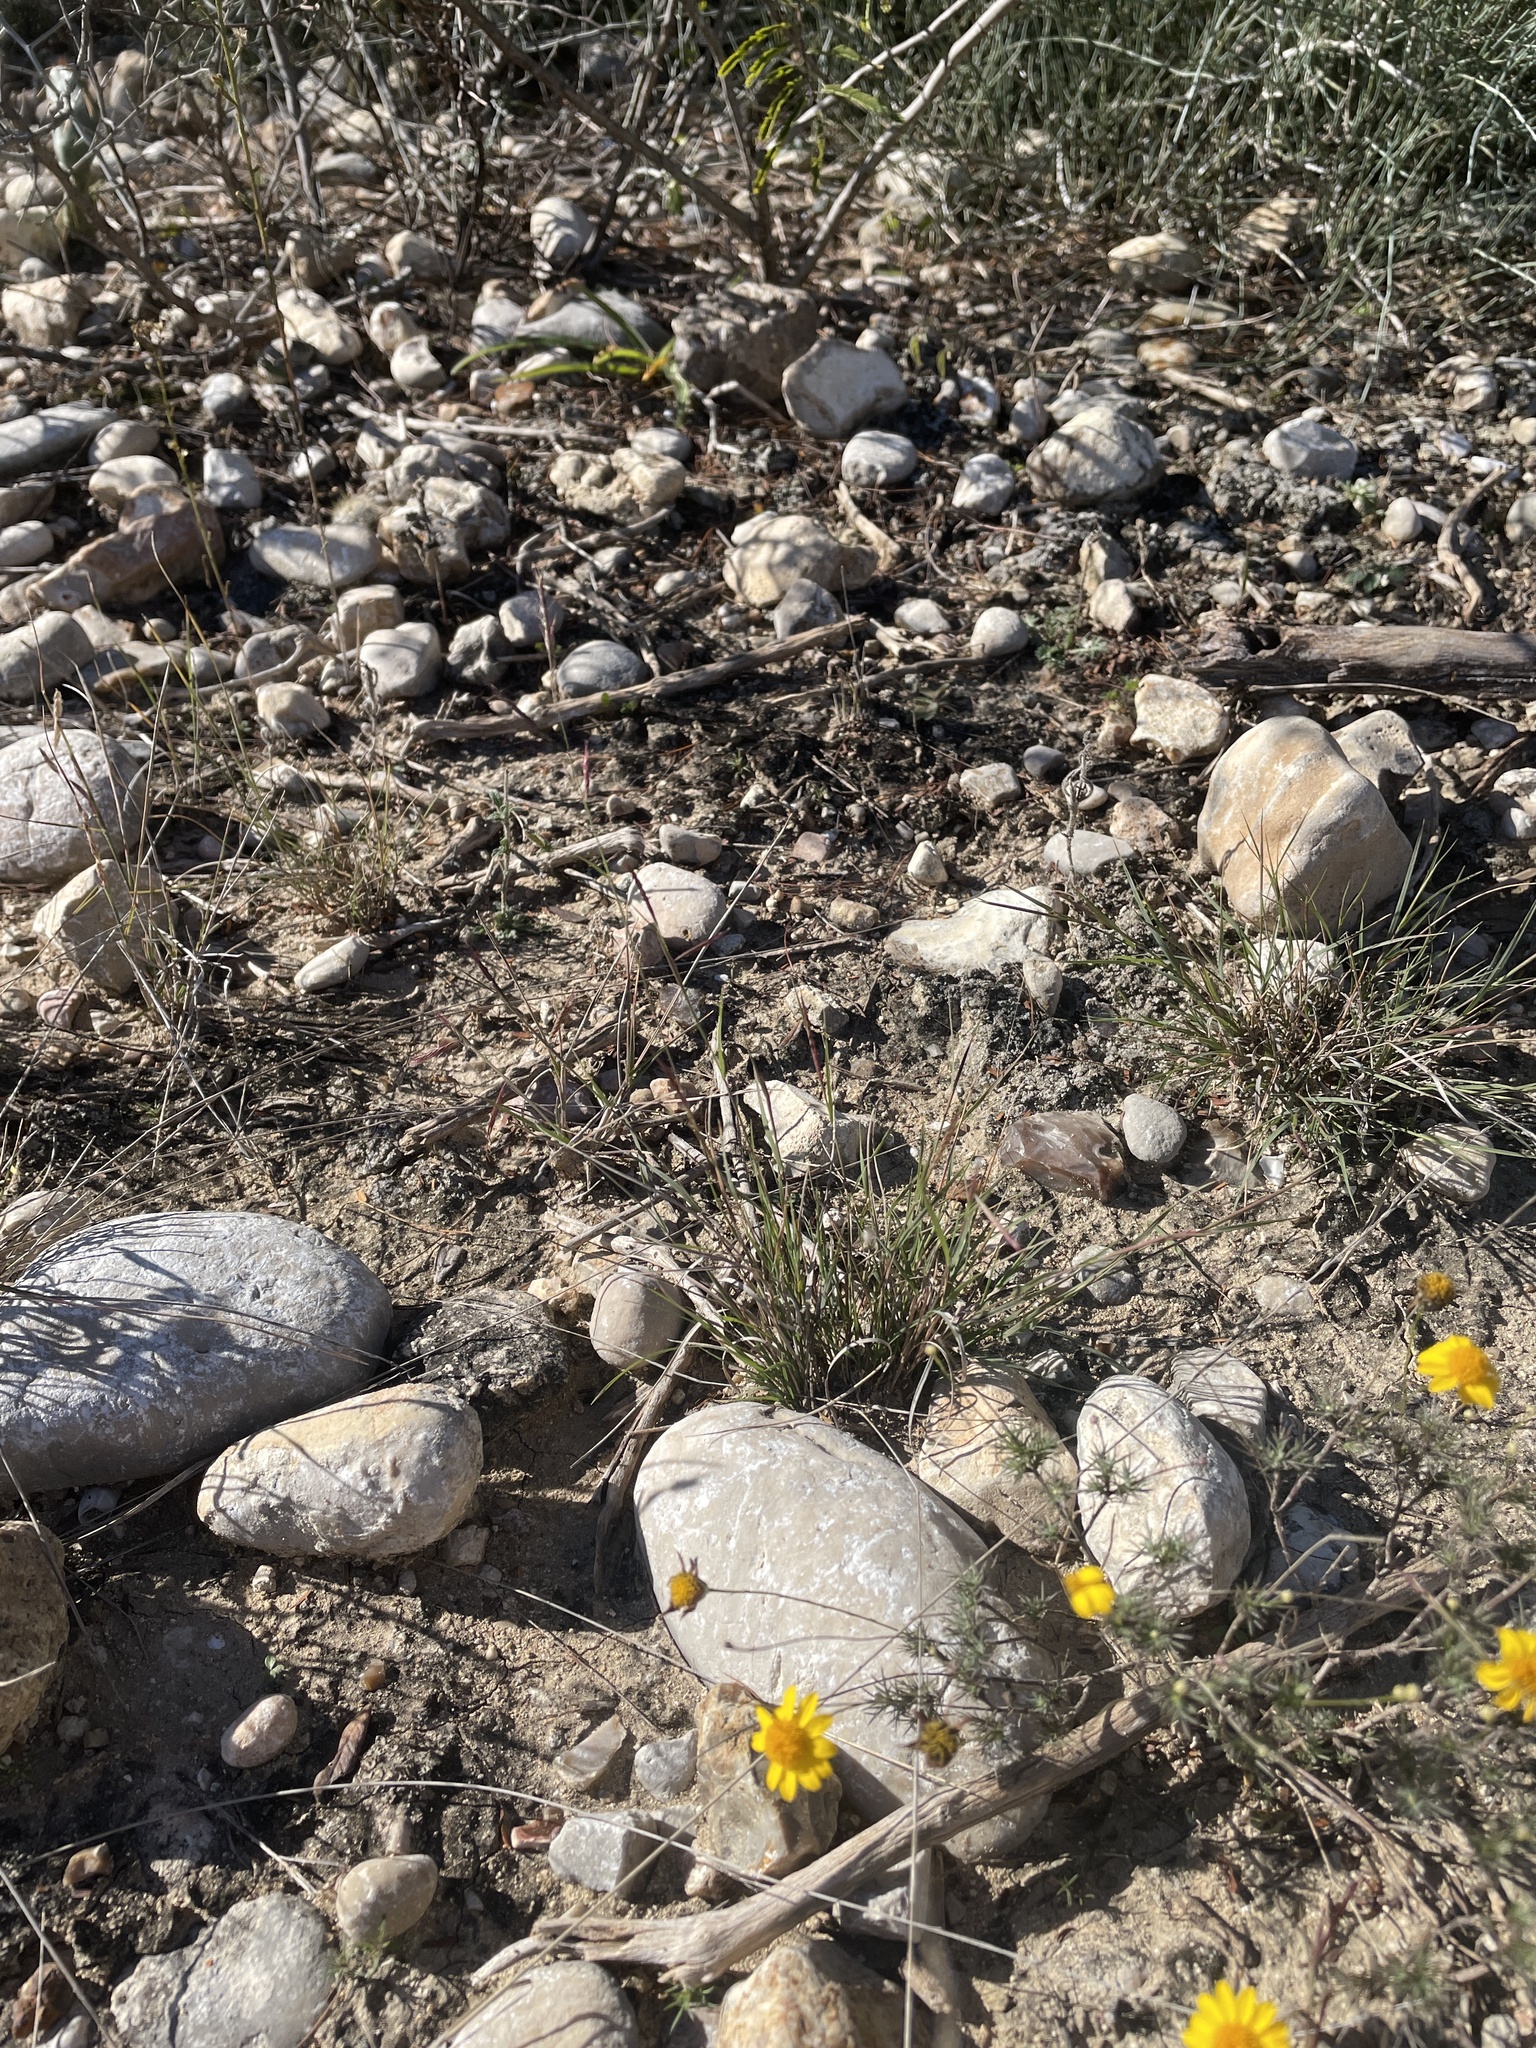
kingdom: Plantae
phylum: Tracheophyta
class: Liliopsida
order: Poales
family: Poaceae
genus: Bouteloua
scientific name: Bouteloua trifida
